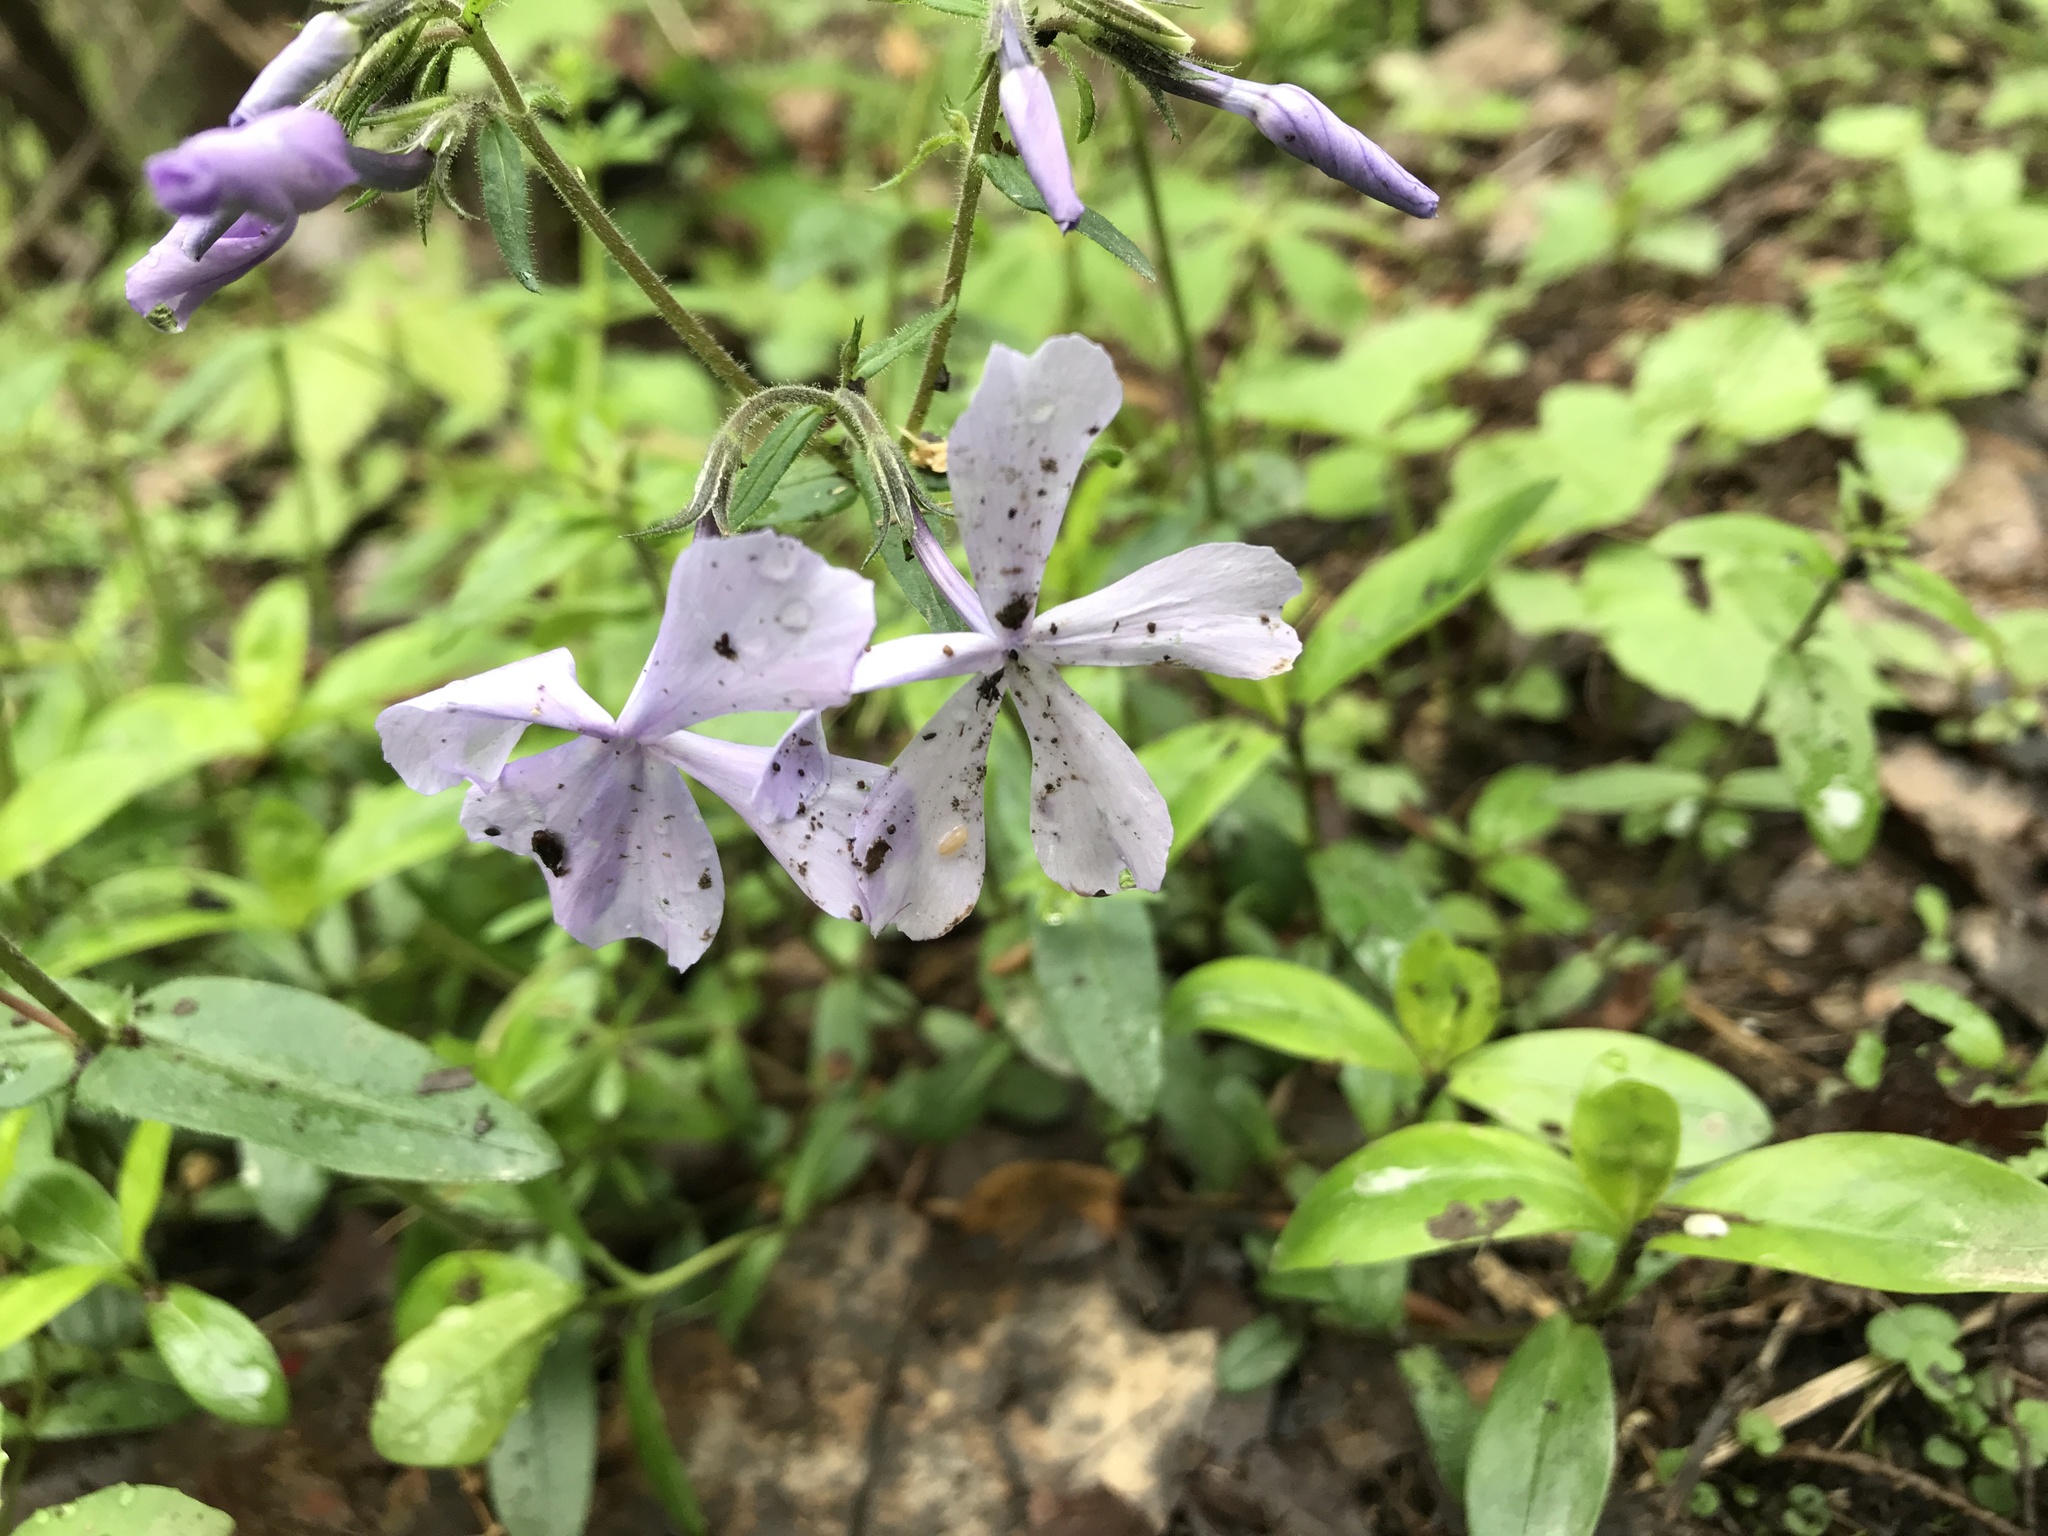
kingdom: Plantae
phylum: Tracheophyta
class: Magnoliopsida
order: Ericales
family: Polemoniaceae
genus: Phlox
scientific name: Phlox divaricata
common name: Blue phlox
